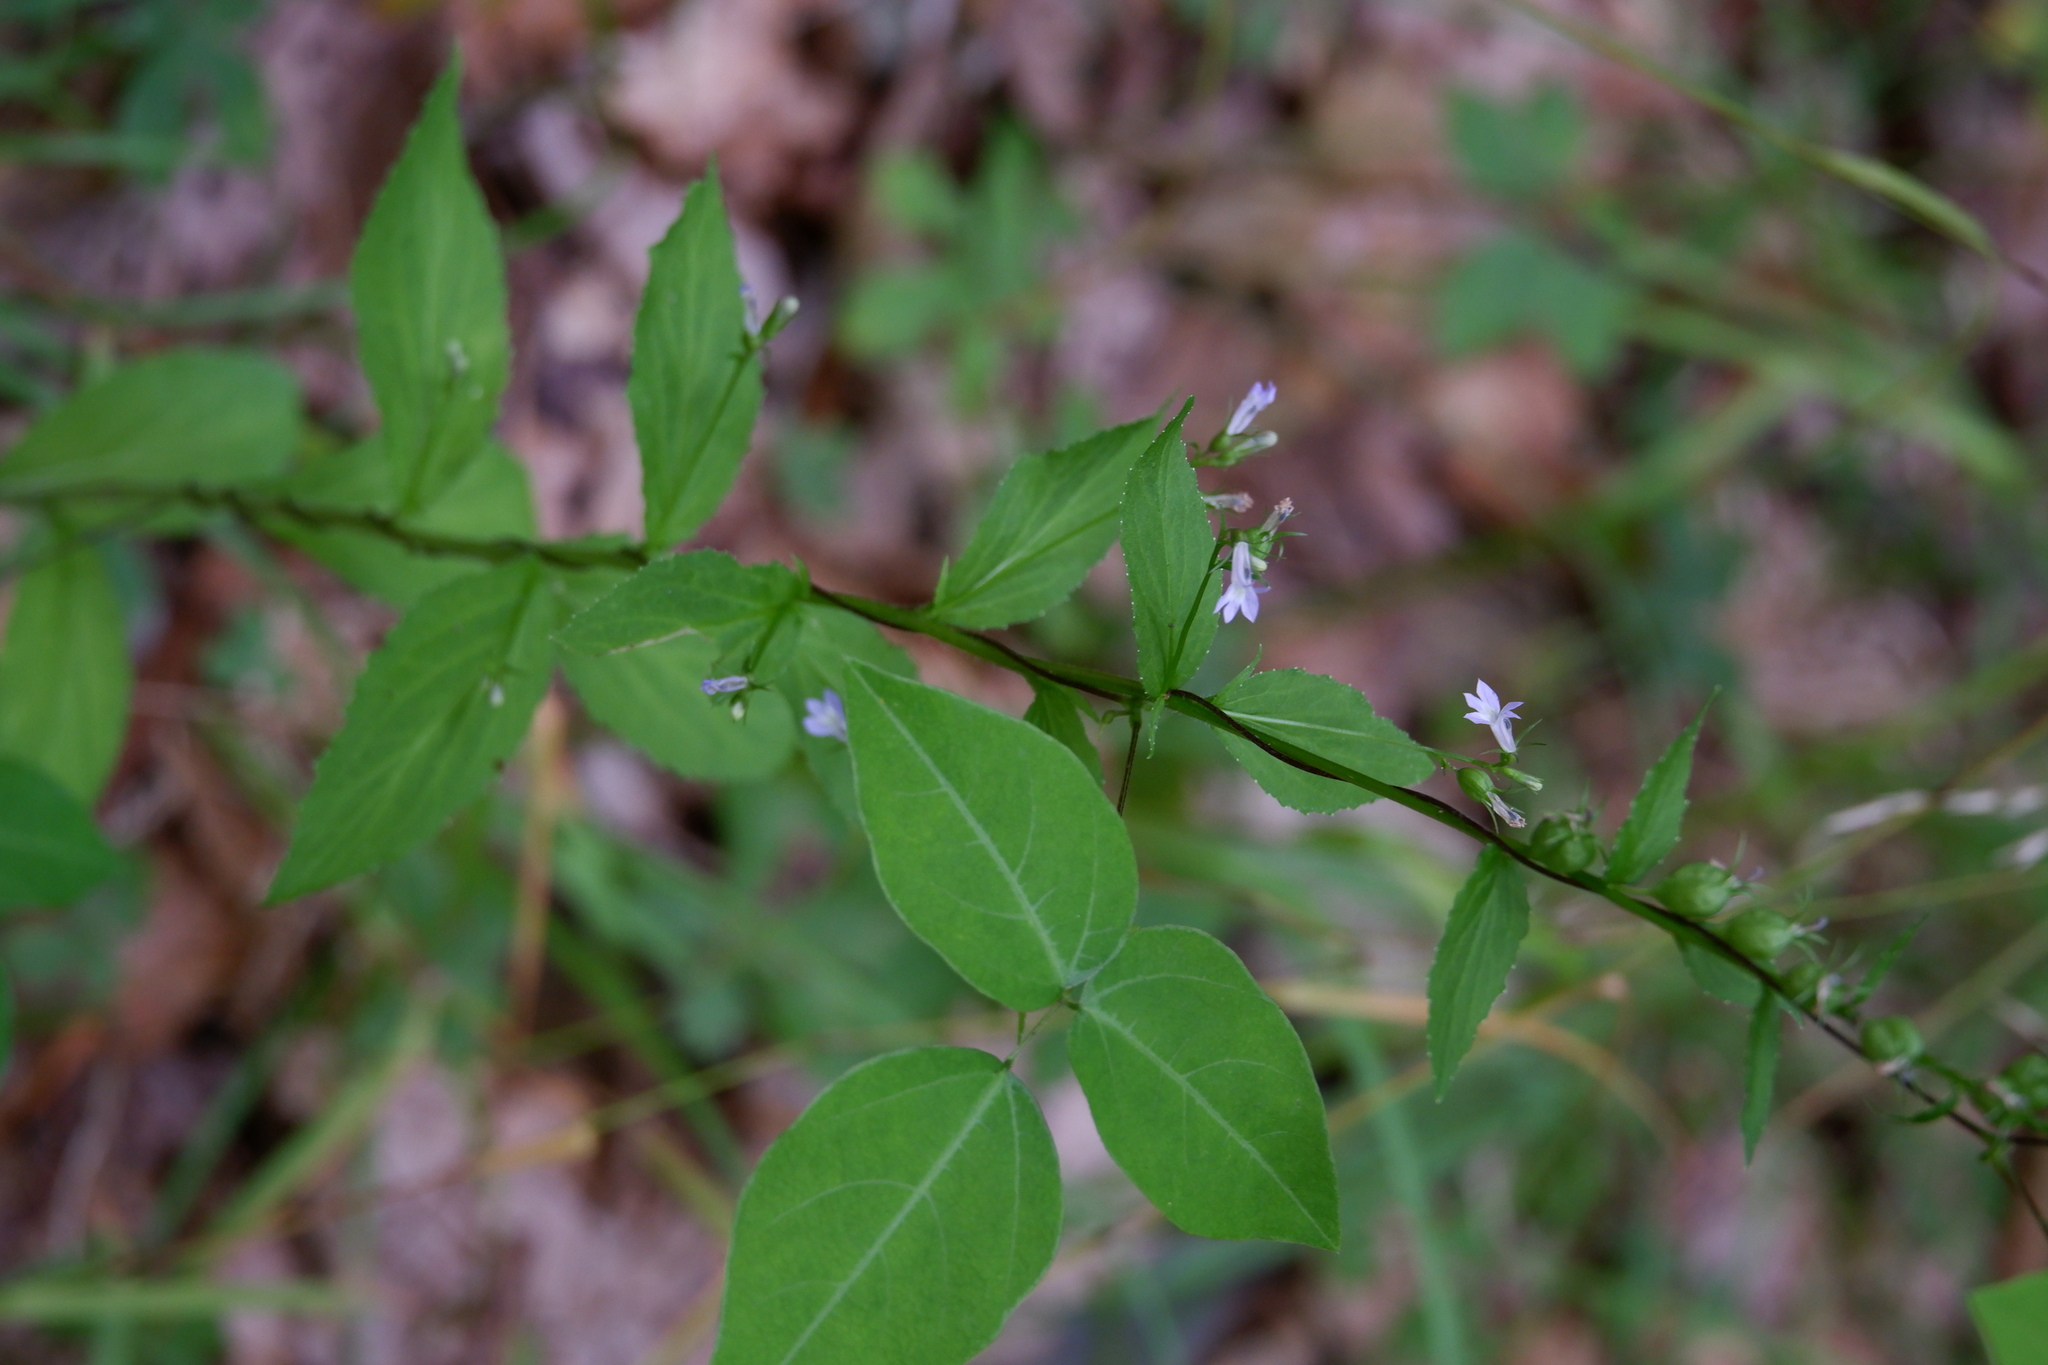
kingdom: Plantae
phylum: Tracheophyta
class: Magnoliopsida
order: Asterales
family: Campanulaceae
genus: Lobelia
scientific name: Lobelia inflata
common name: Indian tobacco
